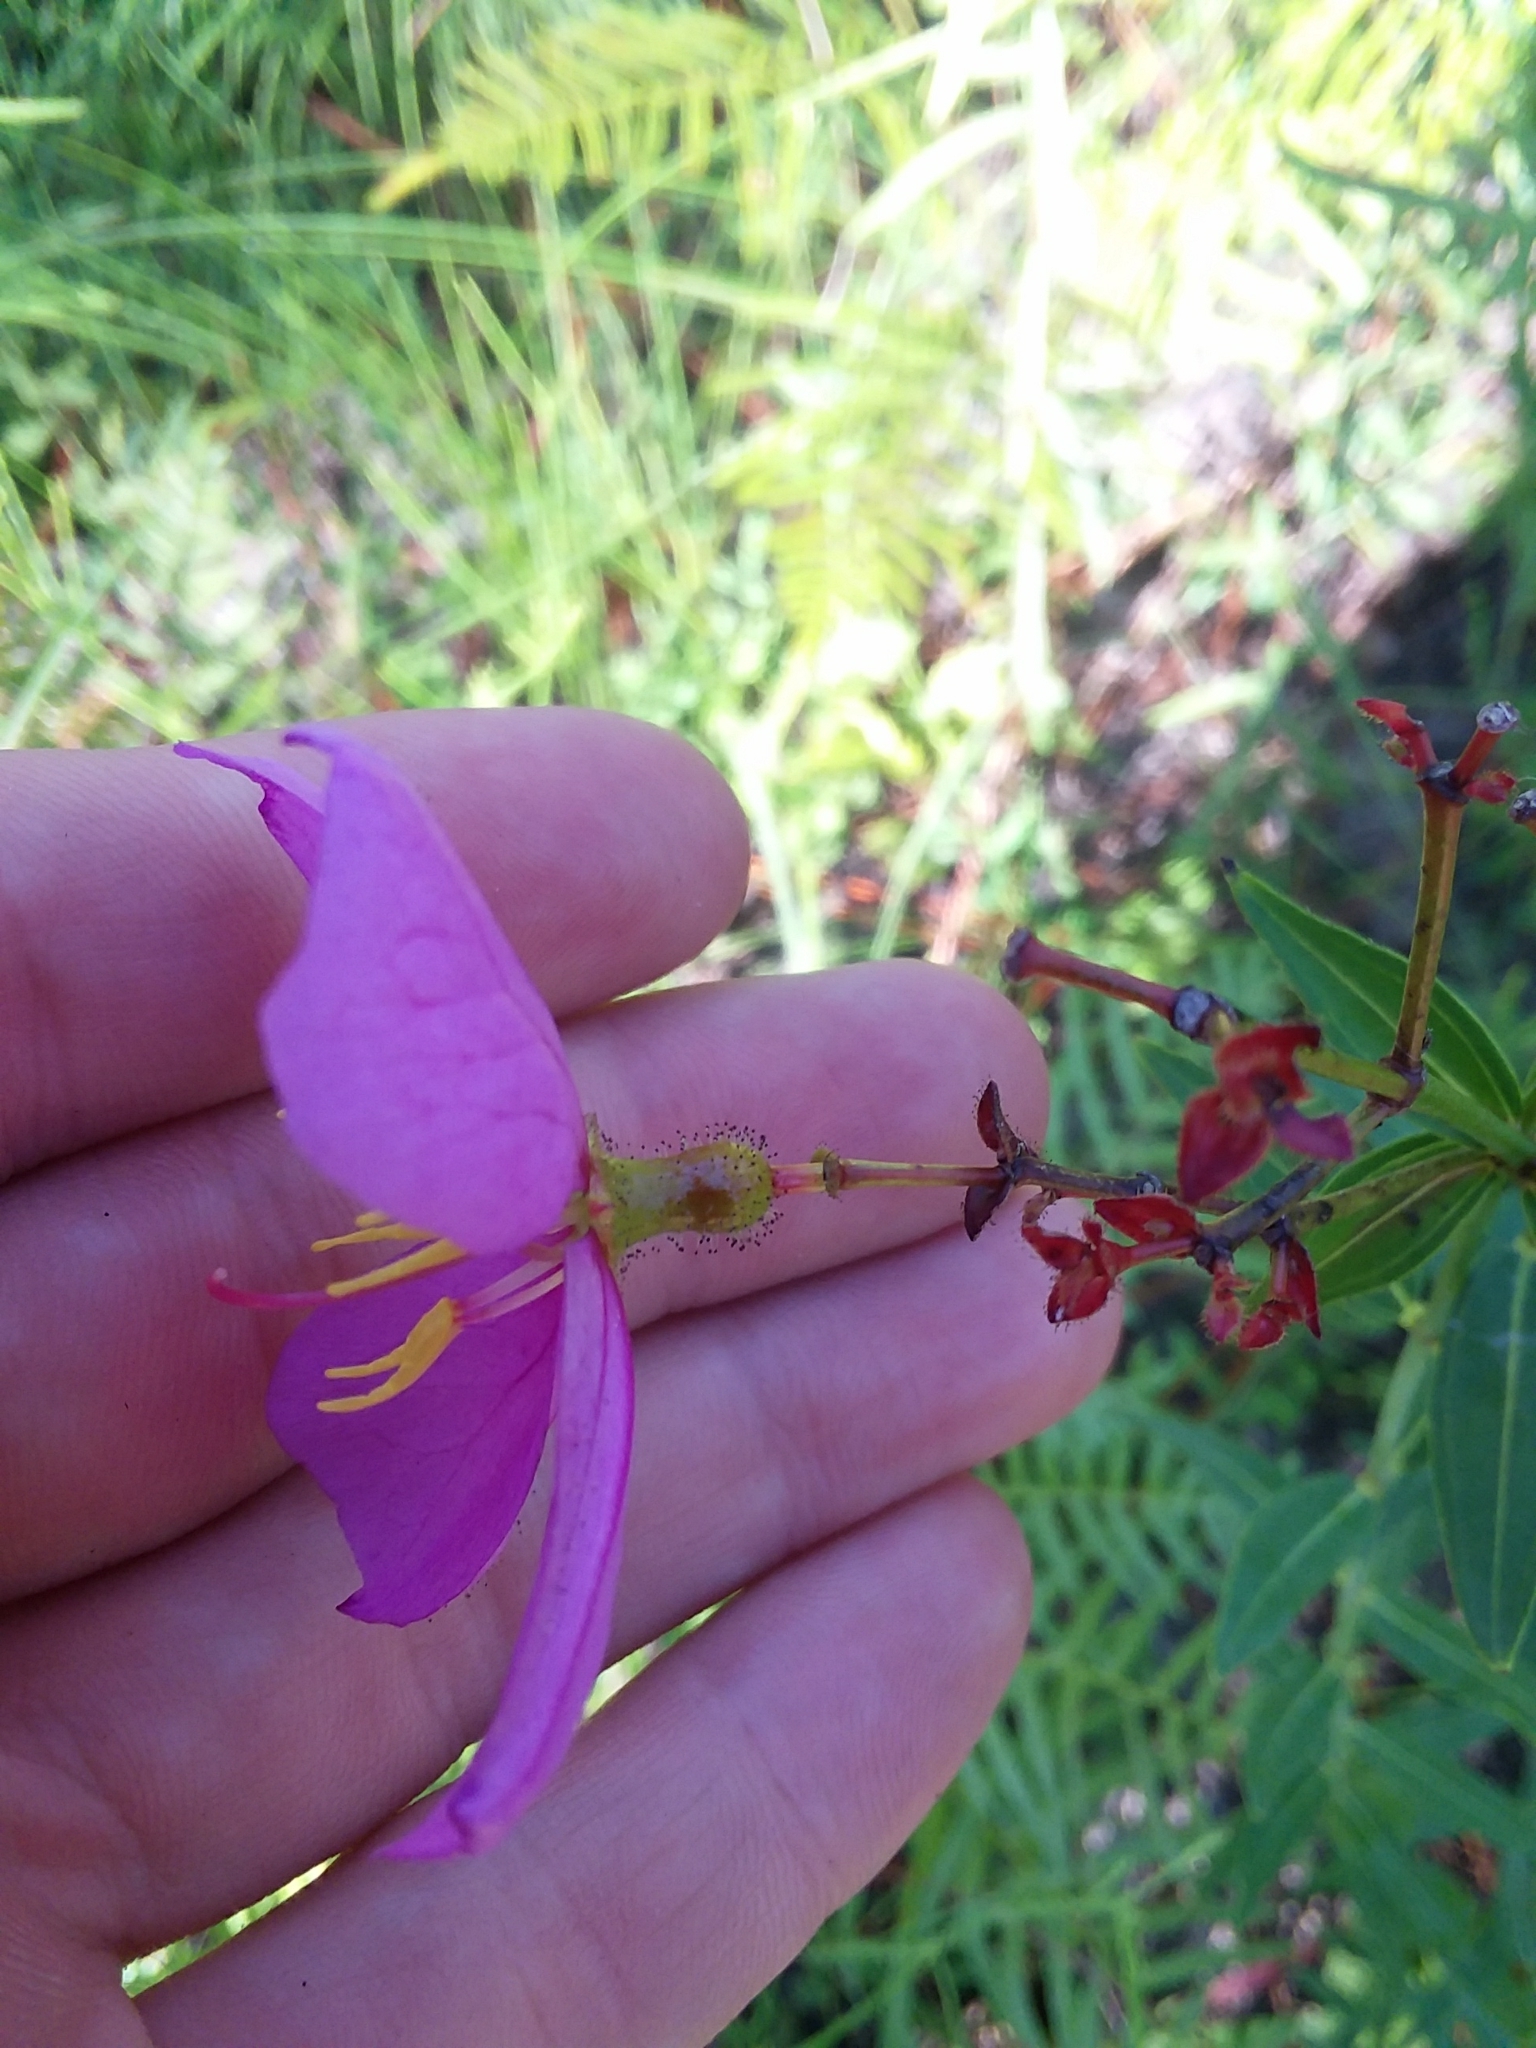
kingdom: Plantae
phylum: Tracheophyta
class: Magnoliopsida
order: Myrtales
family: Melastomataceae
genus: Rhexia
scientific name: Rhexia alifanus
